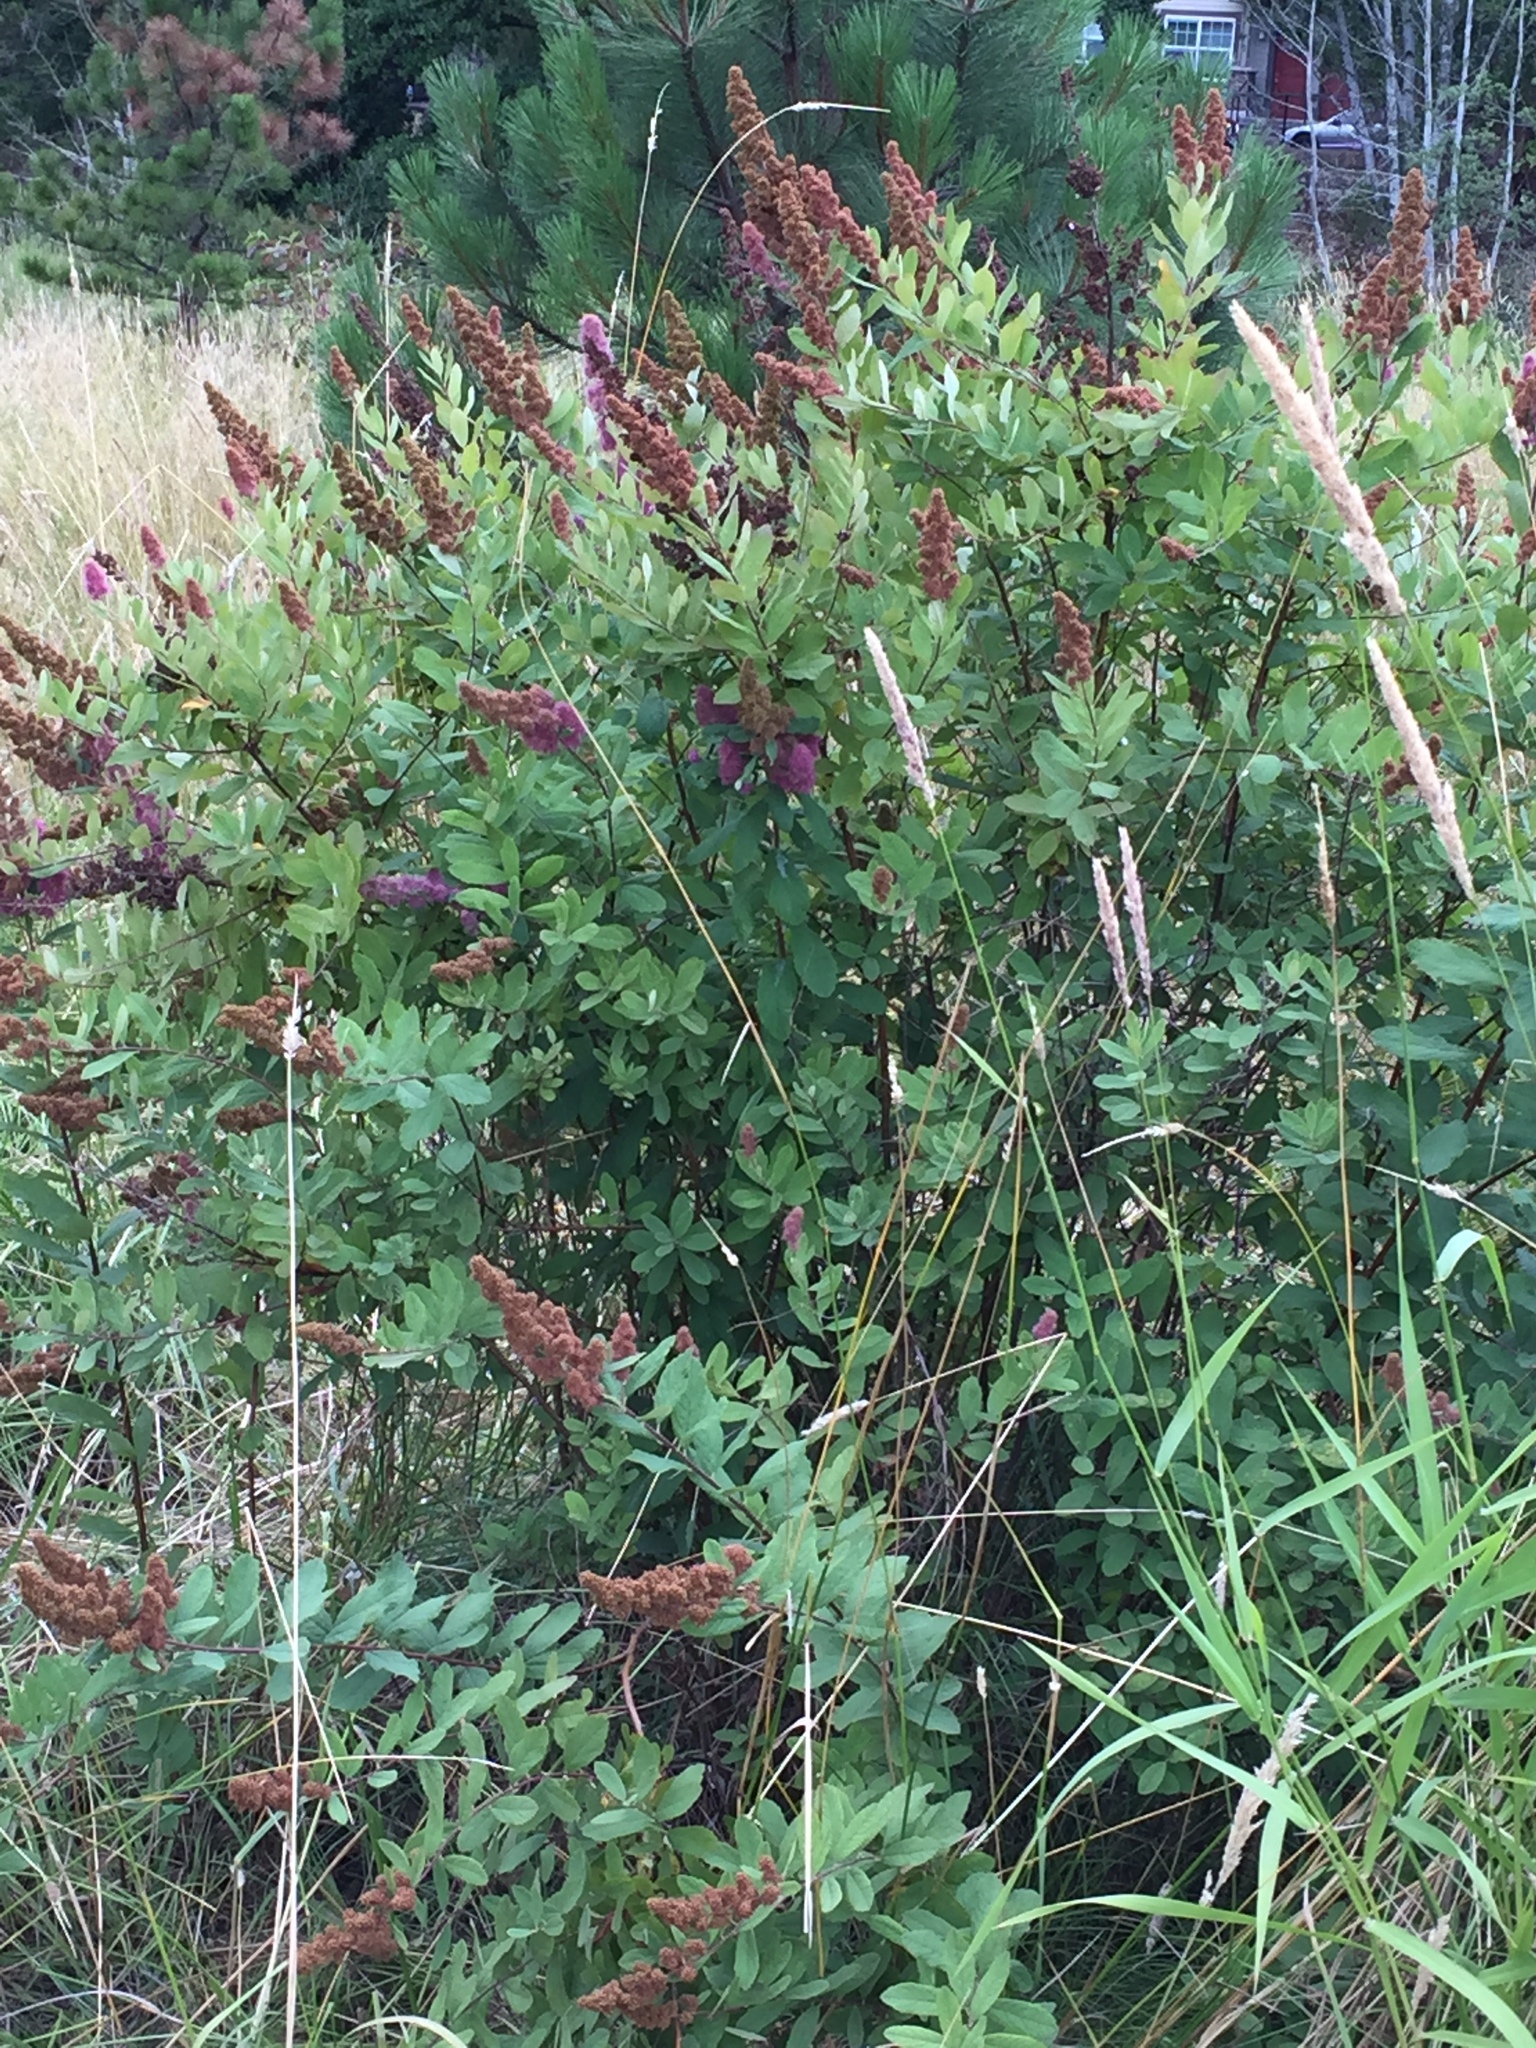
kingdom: Plantae
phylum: Tracheophyta
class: Magnoliopsida
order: Rosales
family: Rosaceae
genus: Spiraea
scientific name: Spiraea douglasii
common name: Steeplebush
